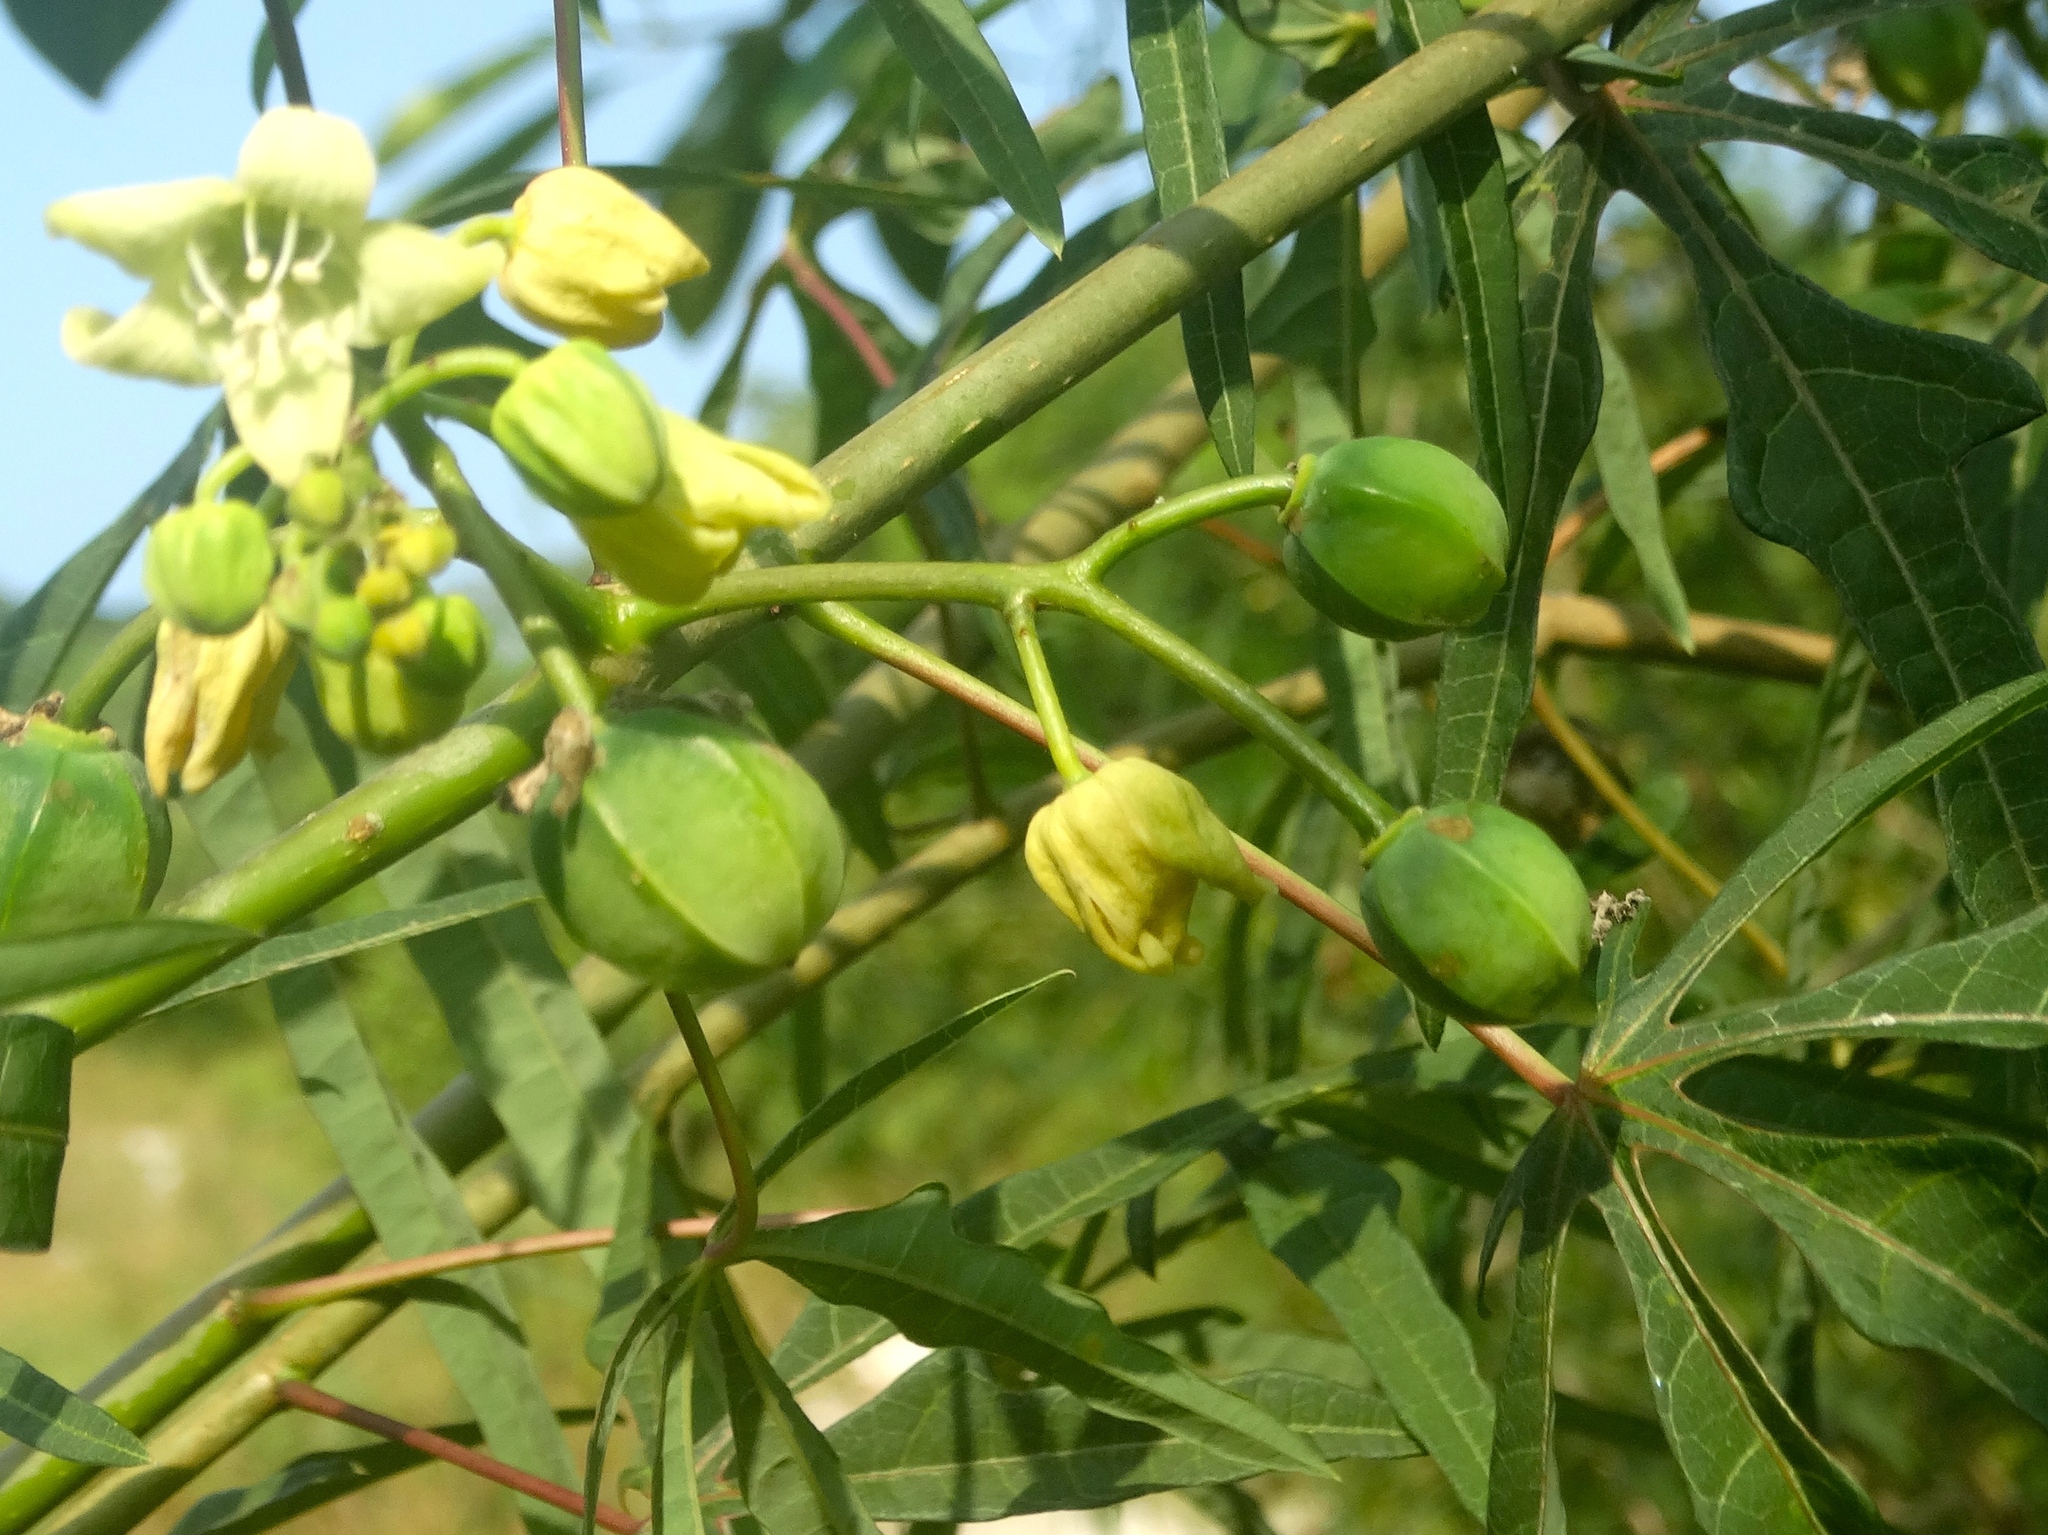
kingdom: Plantae
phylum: Tracheophyta
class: Magnoliopsida
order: Malpighiales
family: Euphorbiaceae
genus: Manihot
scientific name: Manihot angustiloba
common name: Desert mountain manihot
